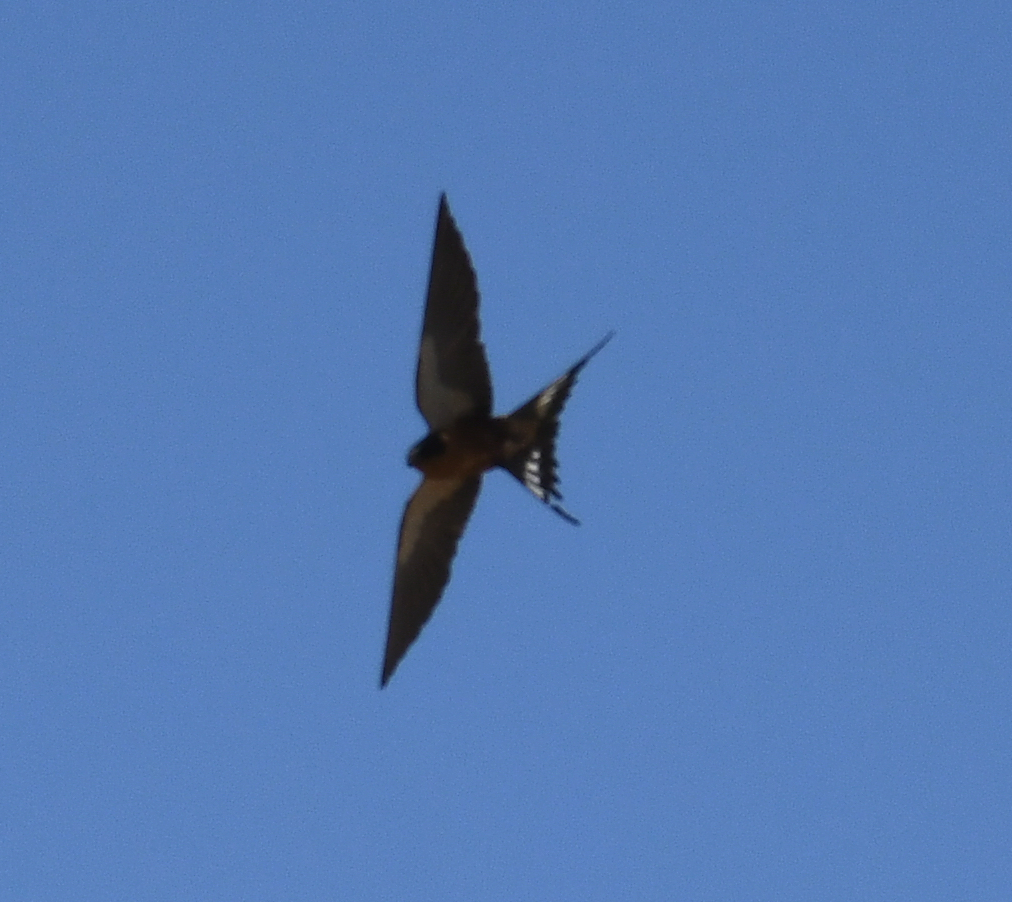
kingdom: Animalia
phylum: Chordata
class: Aves
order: Passeriformes
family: Hirundinidae
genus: Cecropis
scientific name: Cecropis semirufa
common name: Red-breasted swallow
